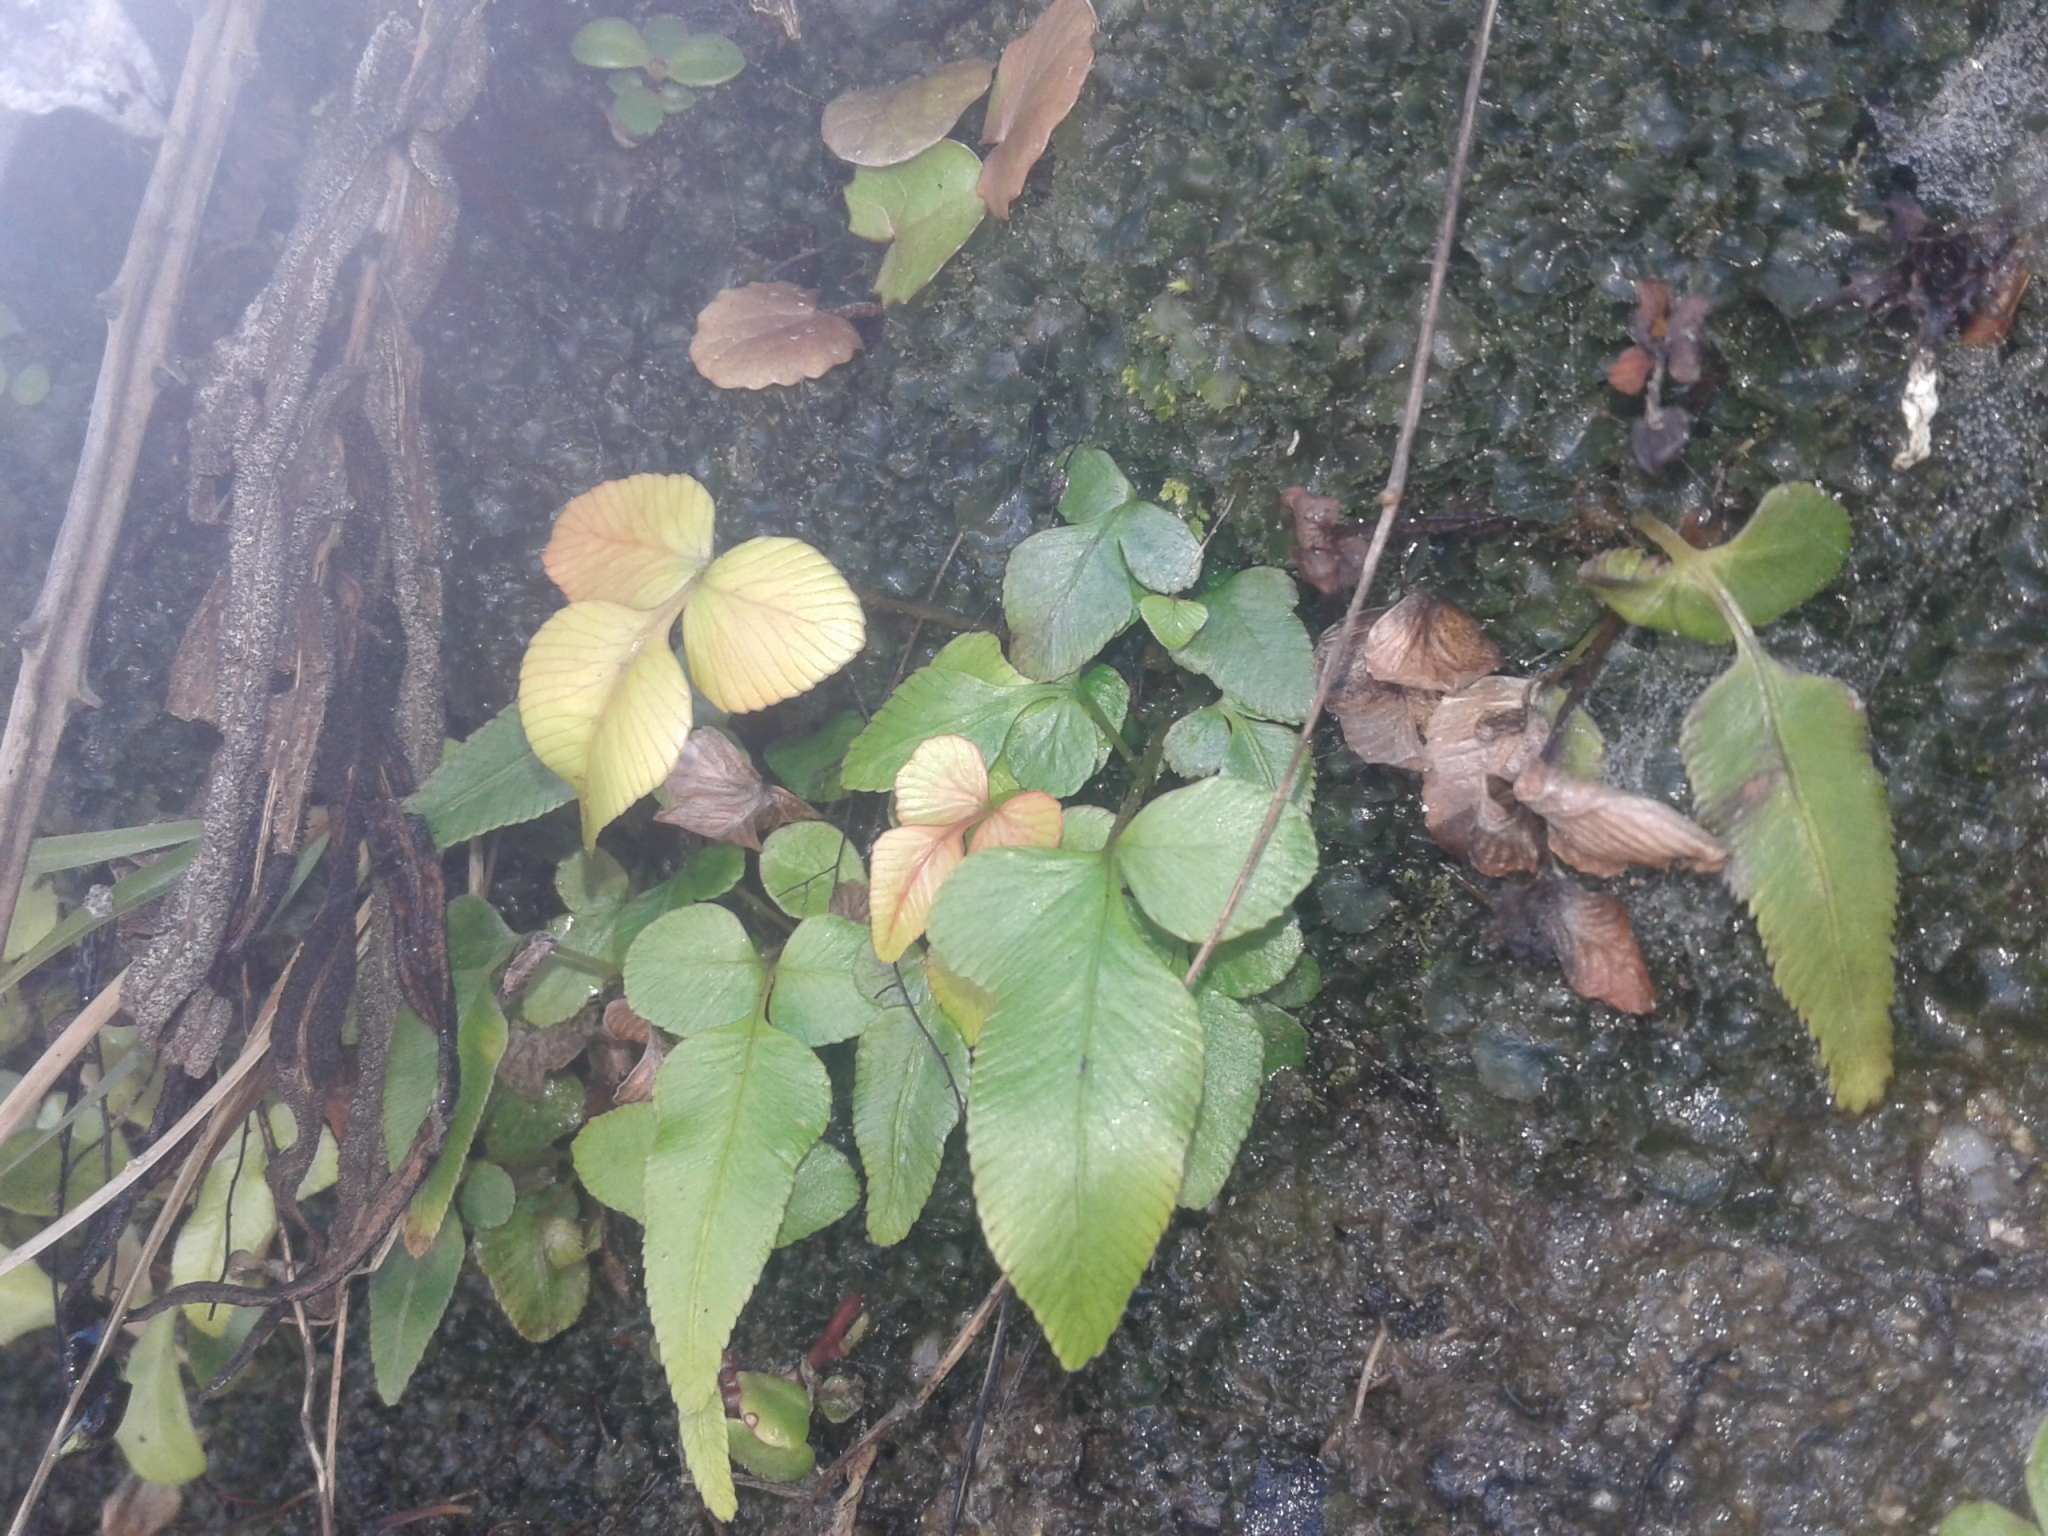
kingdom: Plantae
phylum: Tracheophyta
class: Polypodiopsida
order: Polypodiales
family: Blechnaceae
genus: Parablechnum
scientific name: Parablechnum procerum
